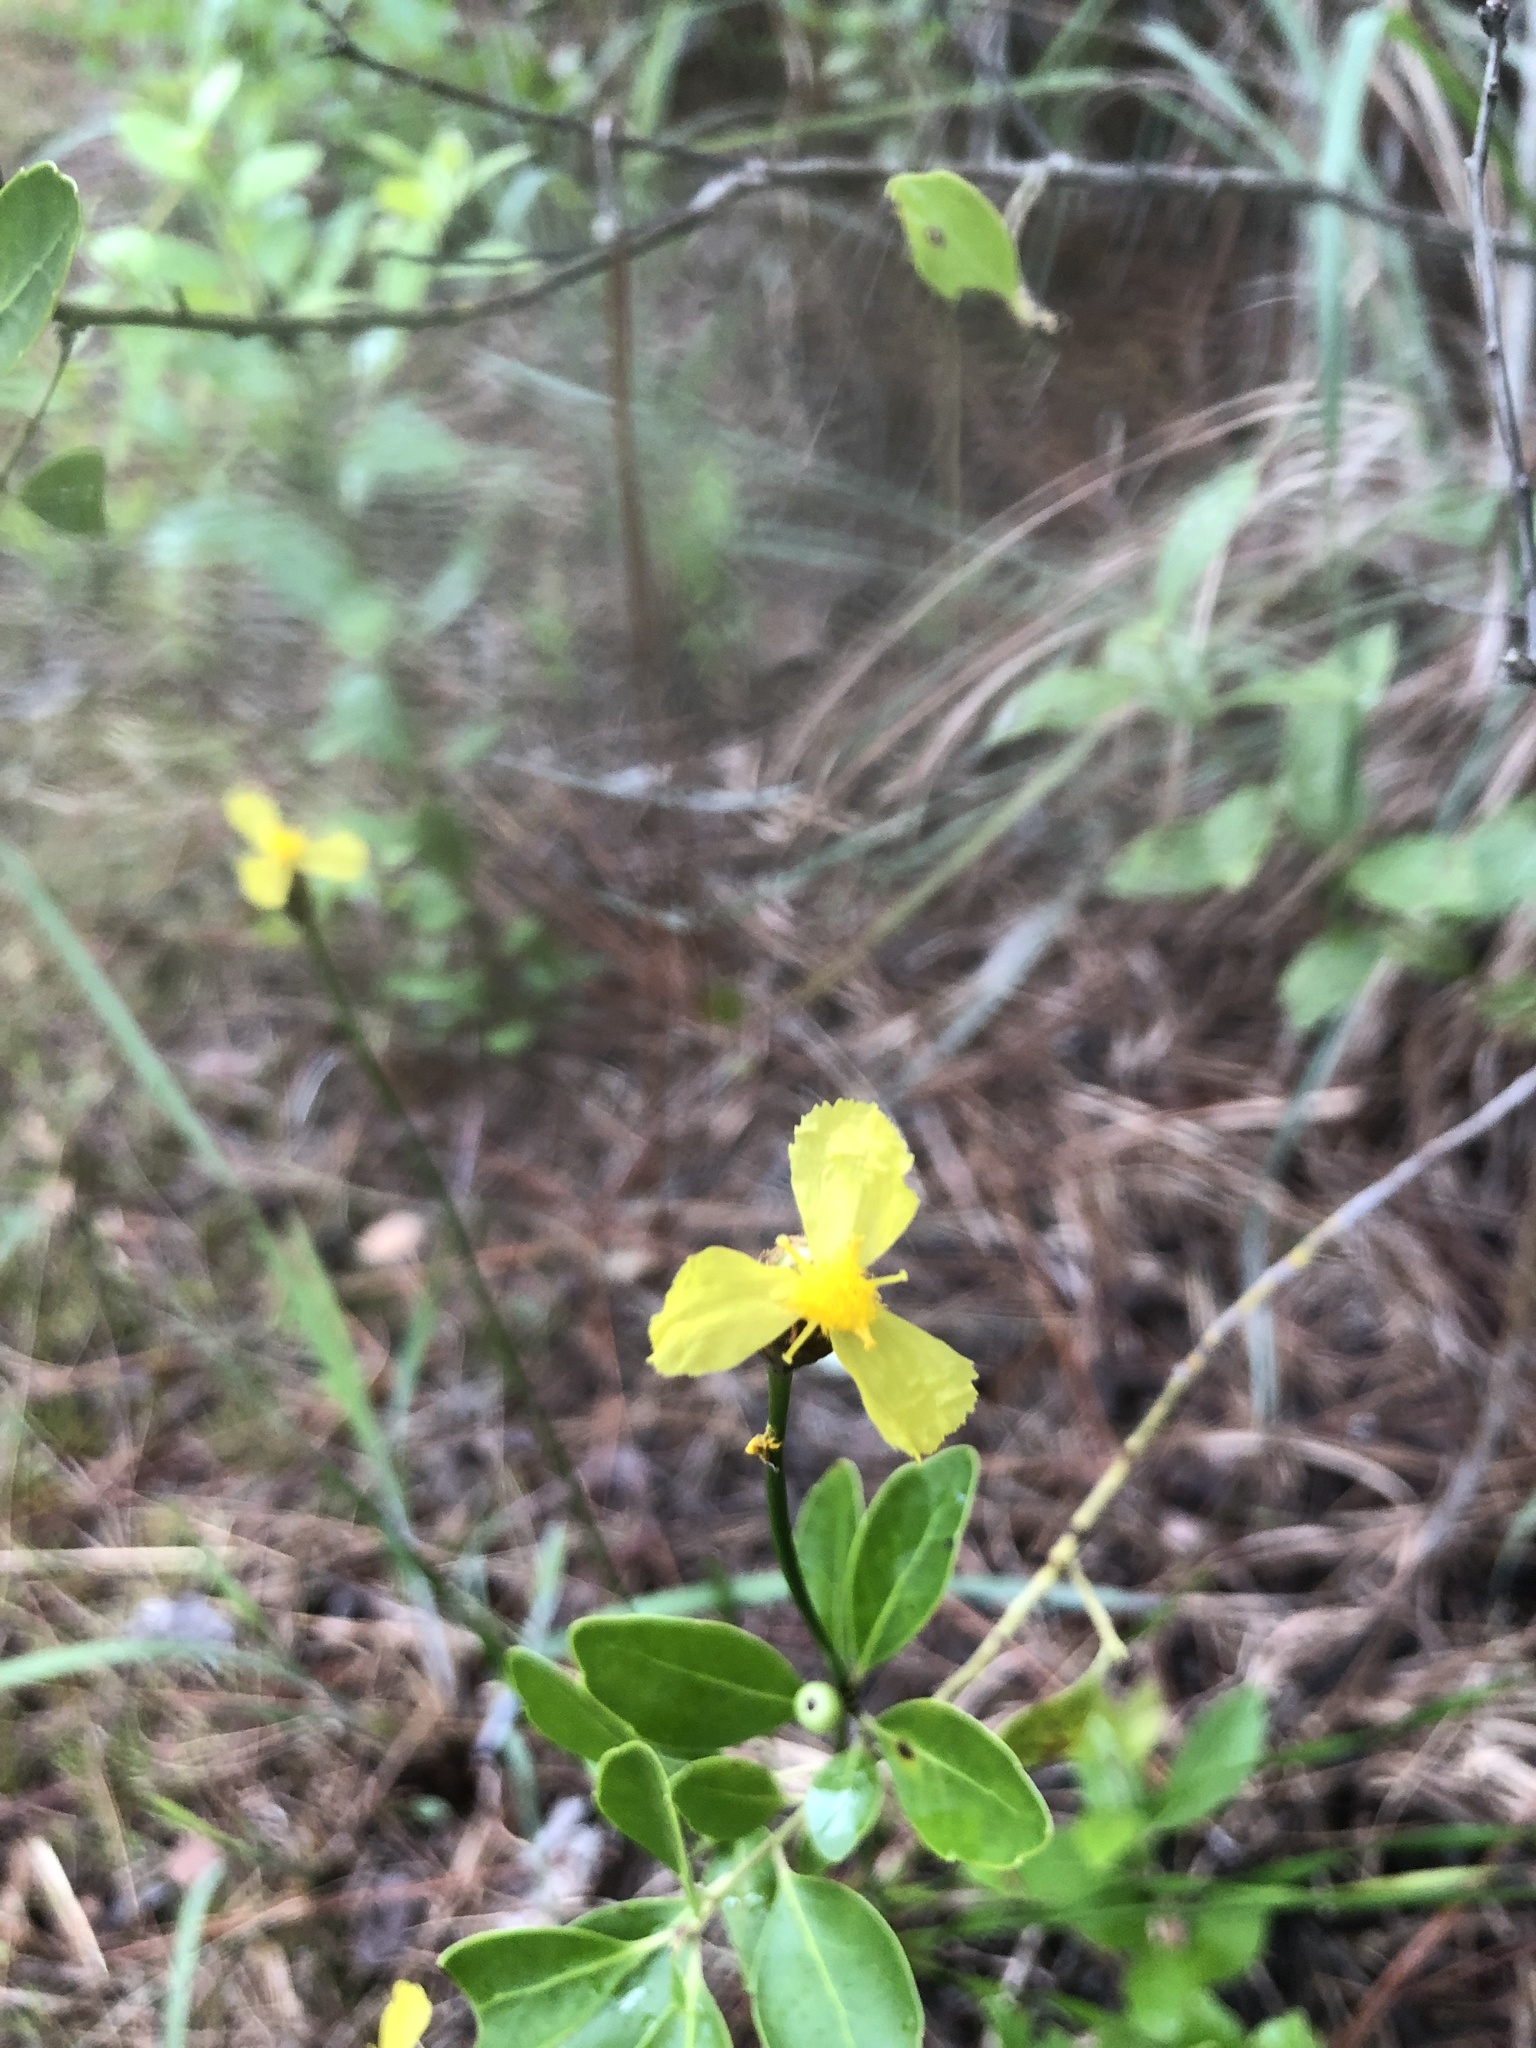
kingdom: Plantae
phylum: Tracheophyta
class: Liliopsida
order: Poales
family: Xyridaceae
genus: Xyris
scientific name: Xyris caroliniana
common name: Carolina yellow-eyed-grass
